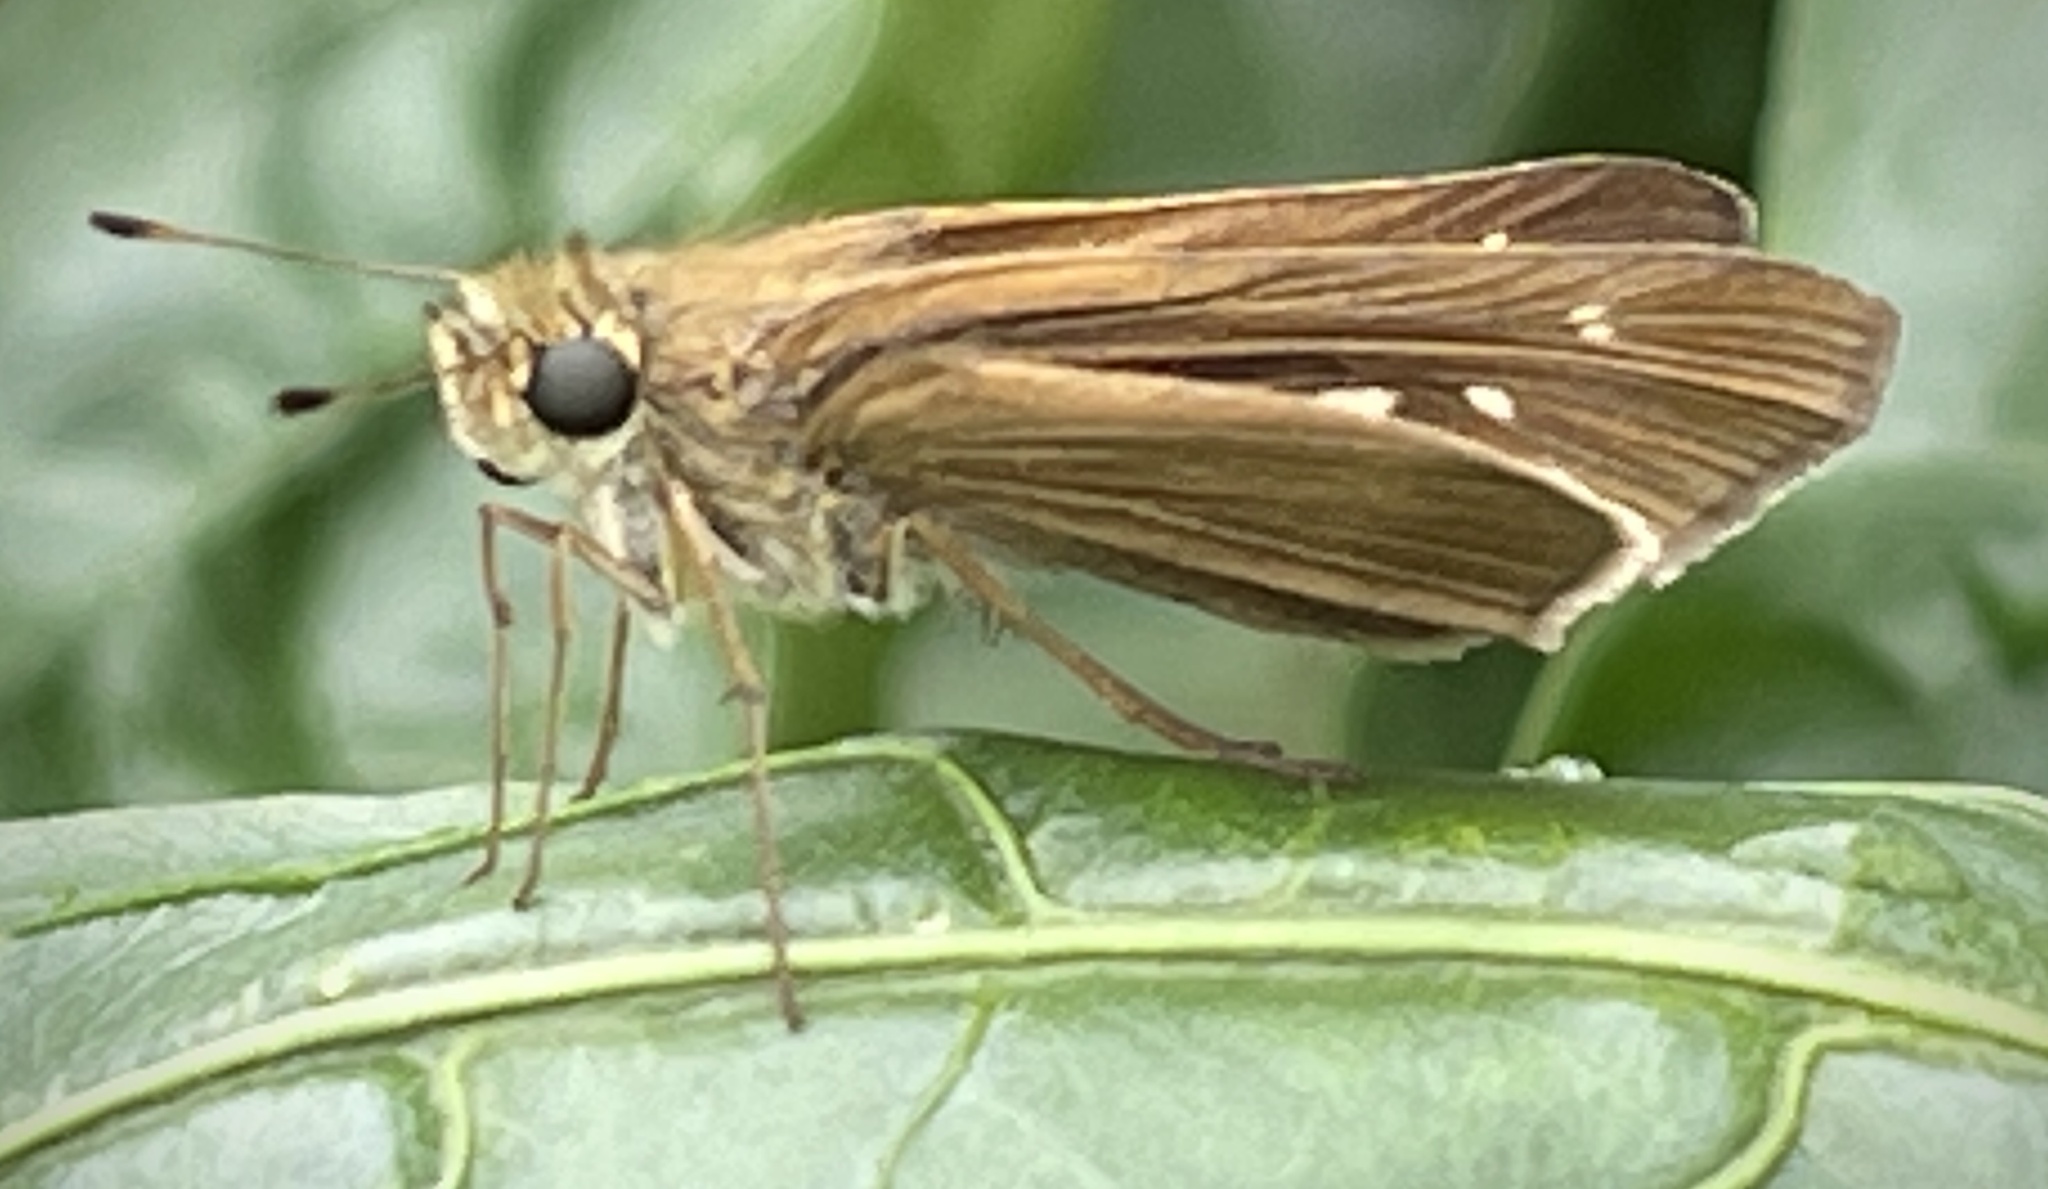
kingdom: Animalia
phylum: Arthropoda
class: Insecta
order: Lepidoptera
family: Hesperiidae
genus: Panoquina
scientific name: Panoquina ocola
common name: Ocola skipper
